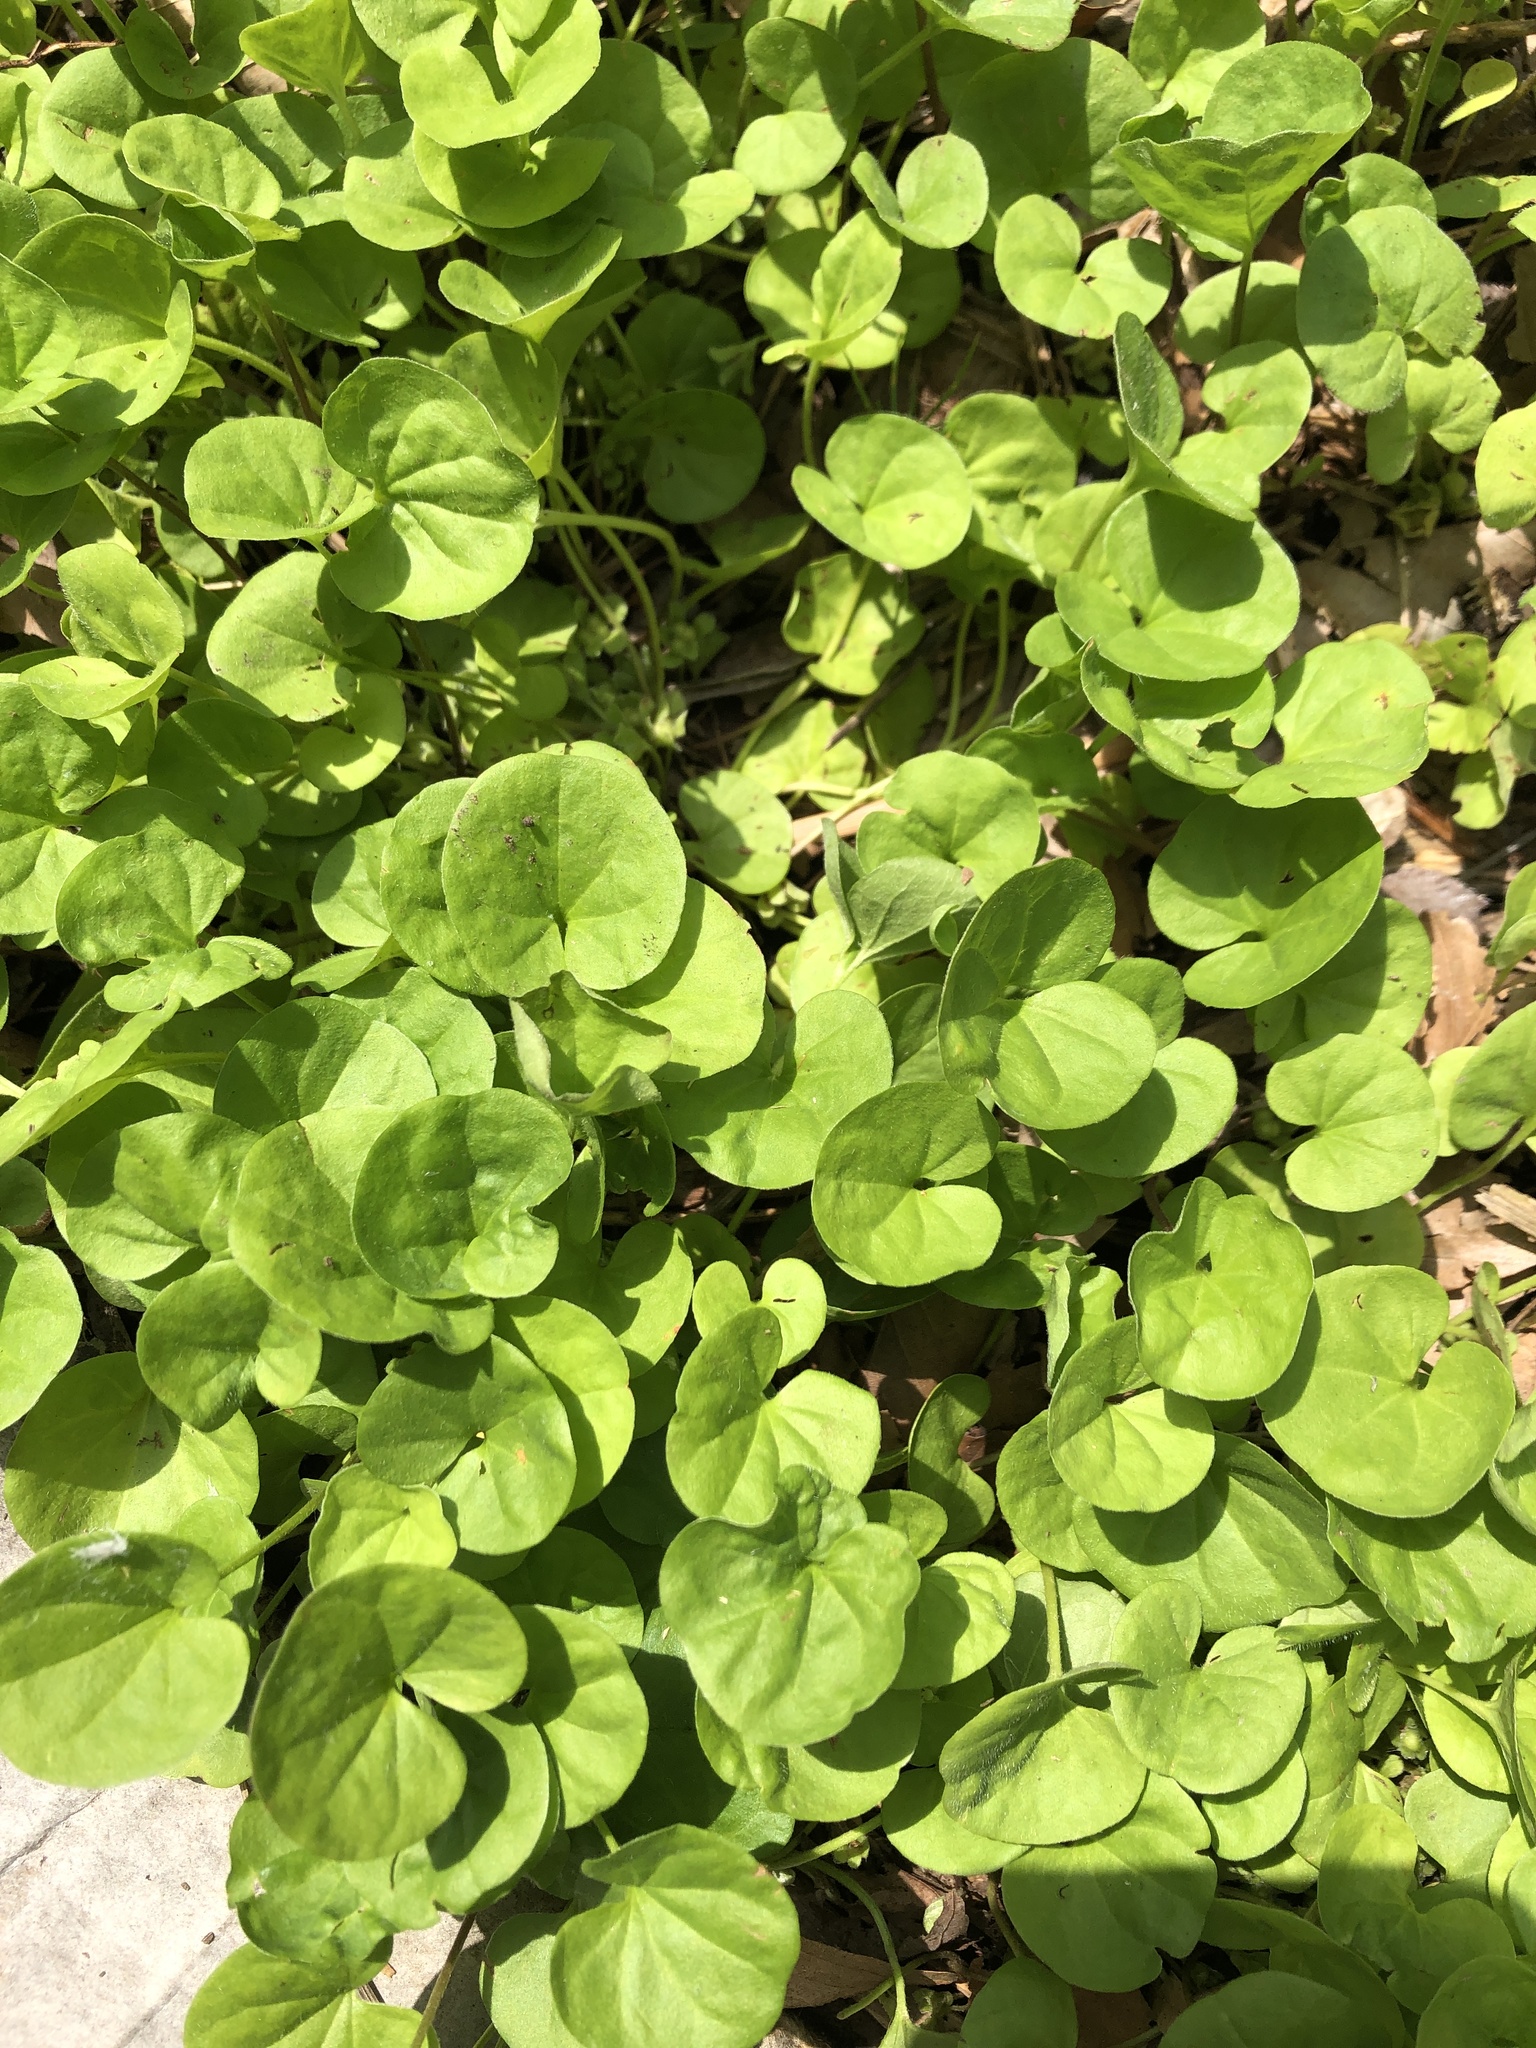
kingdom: Plantae
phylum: Tracheophyta
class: Magnoliopsida
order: Solanales
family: Convolvulaceae
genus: Dichondra
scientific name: Dichondra carolinensis
